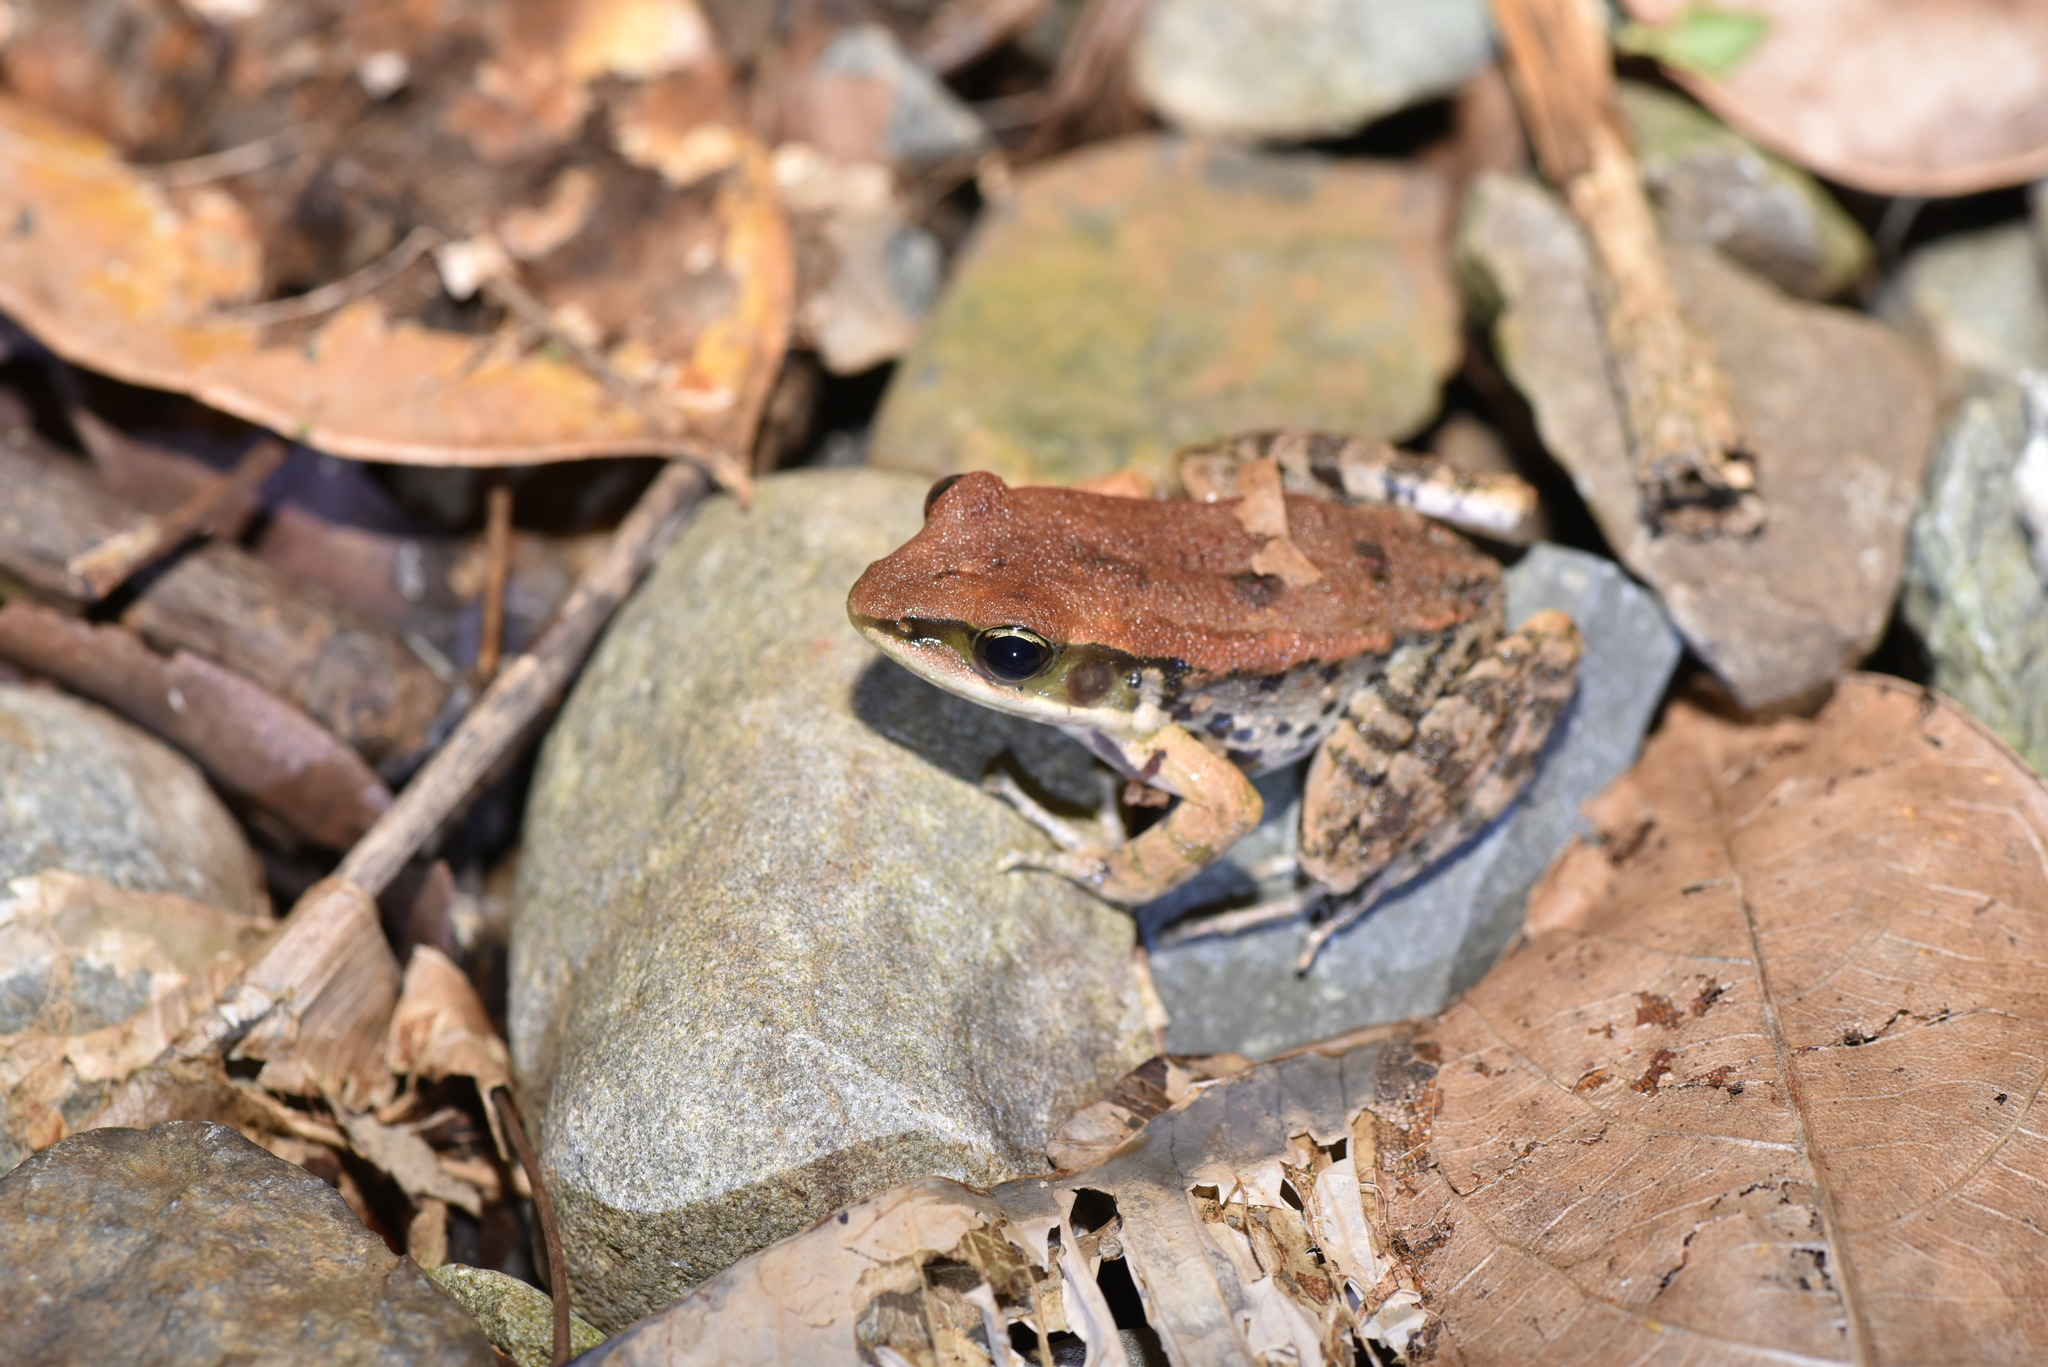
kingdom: Animalia
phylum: Chordata
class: Amphibia
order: Anura
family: Ranidae
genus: Hylarana
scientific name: Hylarana latouchii
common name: Broad-folded frog
